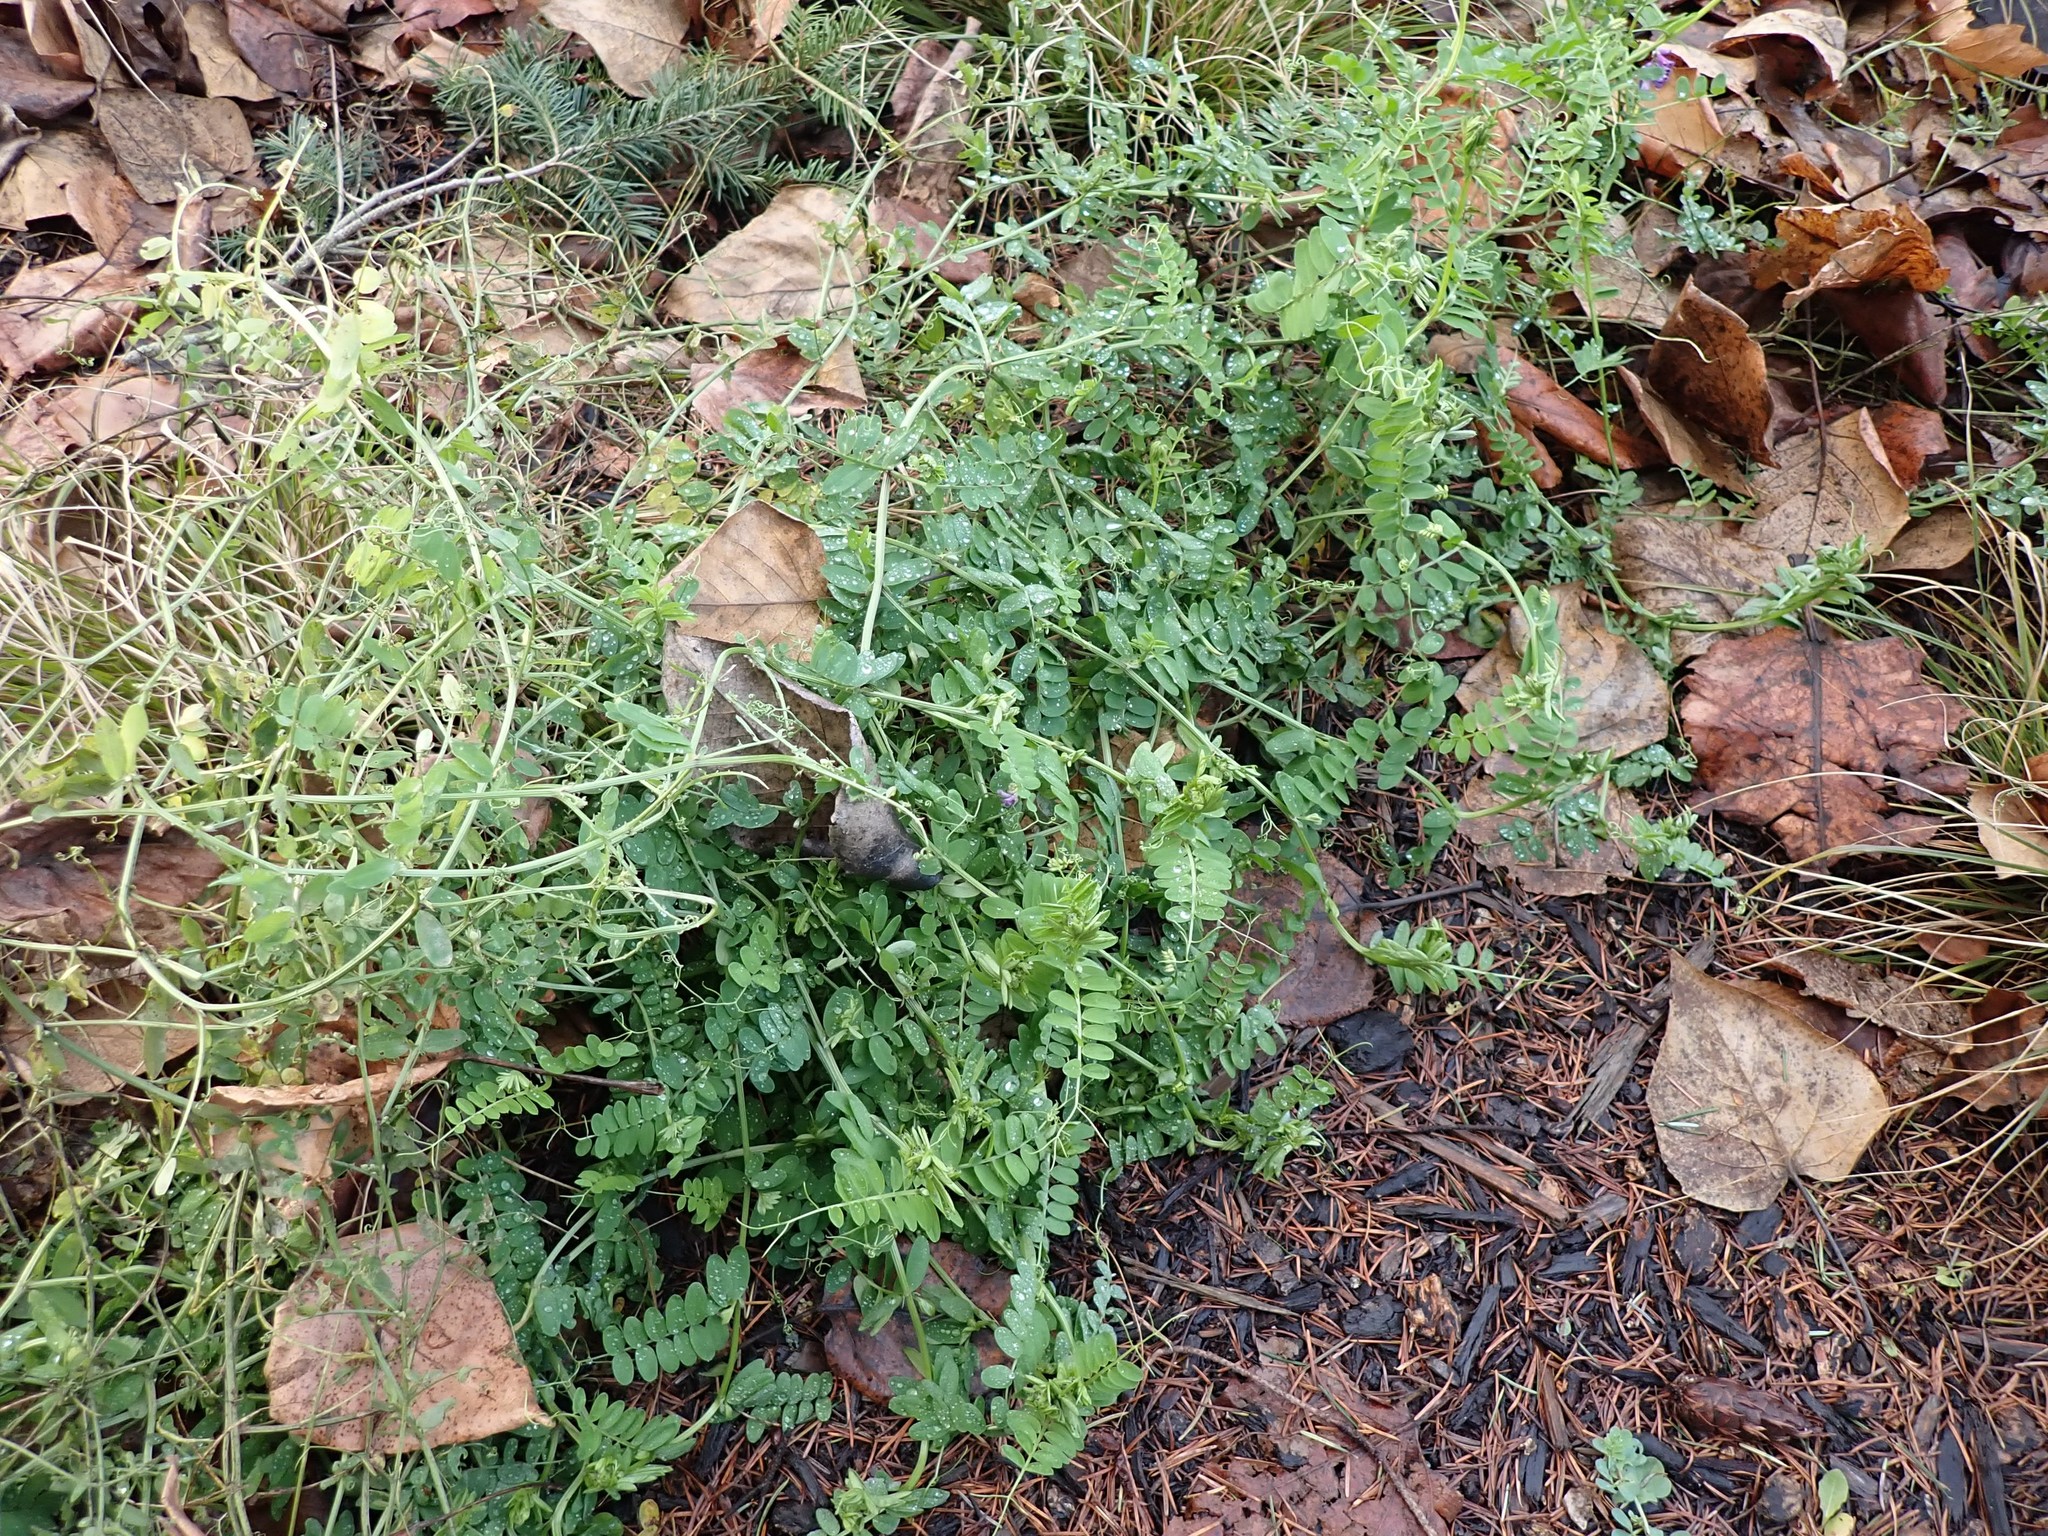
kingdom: Plantae
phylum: Tracheophyta
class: Magnoliopsida
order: Fabales
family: Fabaceae
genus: Vicia
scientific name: Vicia villosa
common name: Fodder vetch
